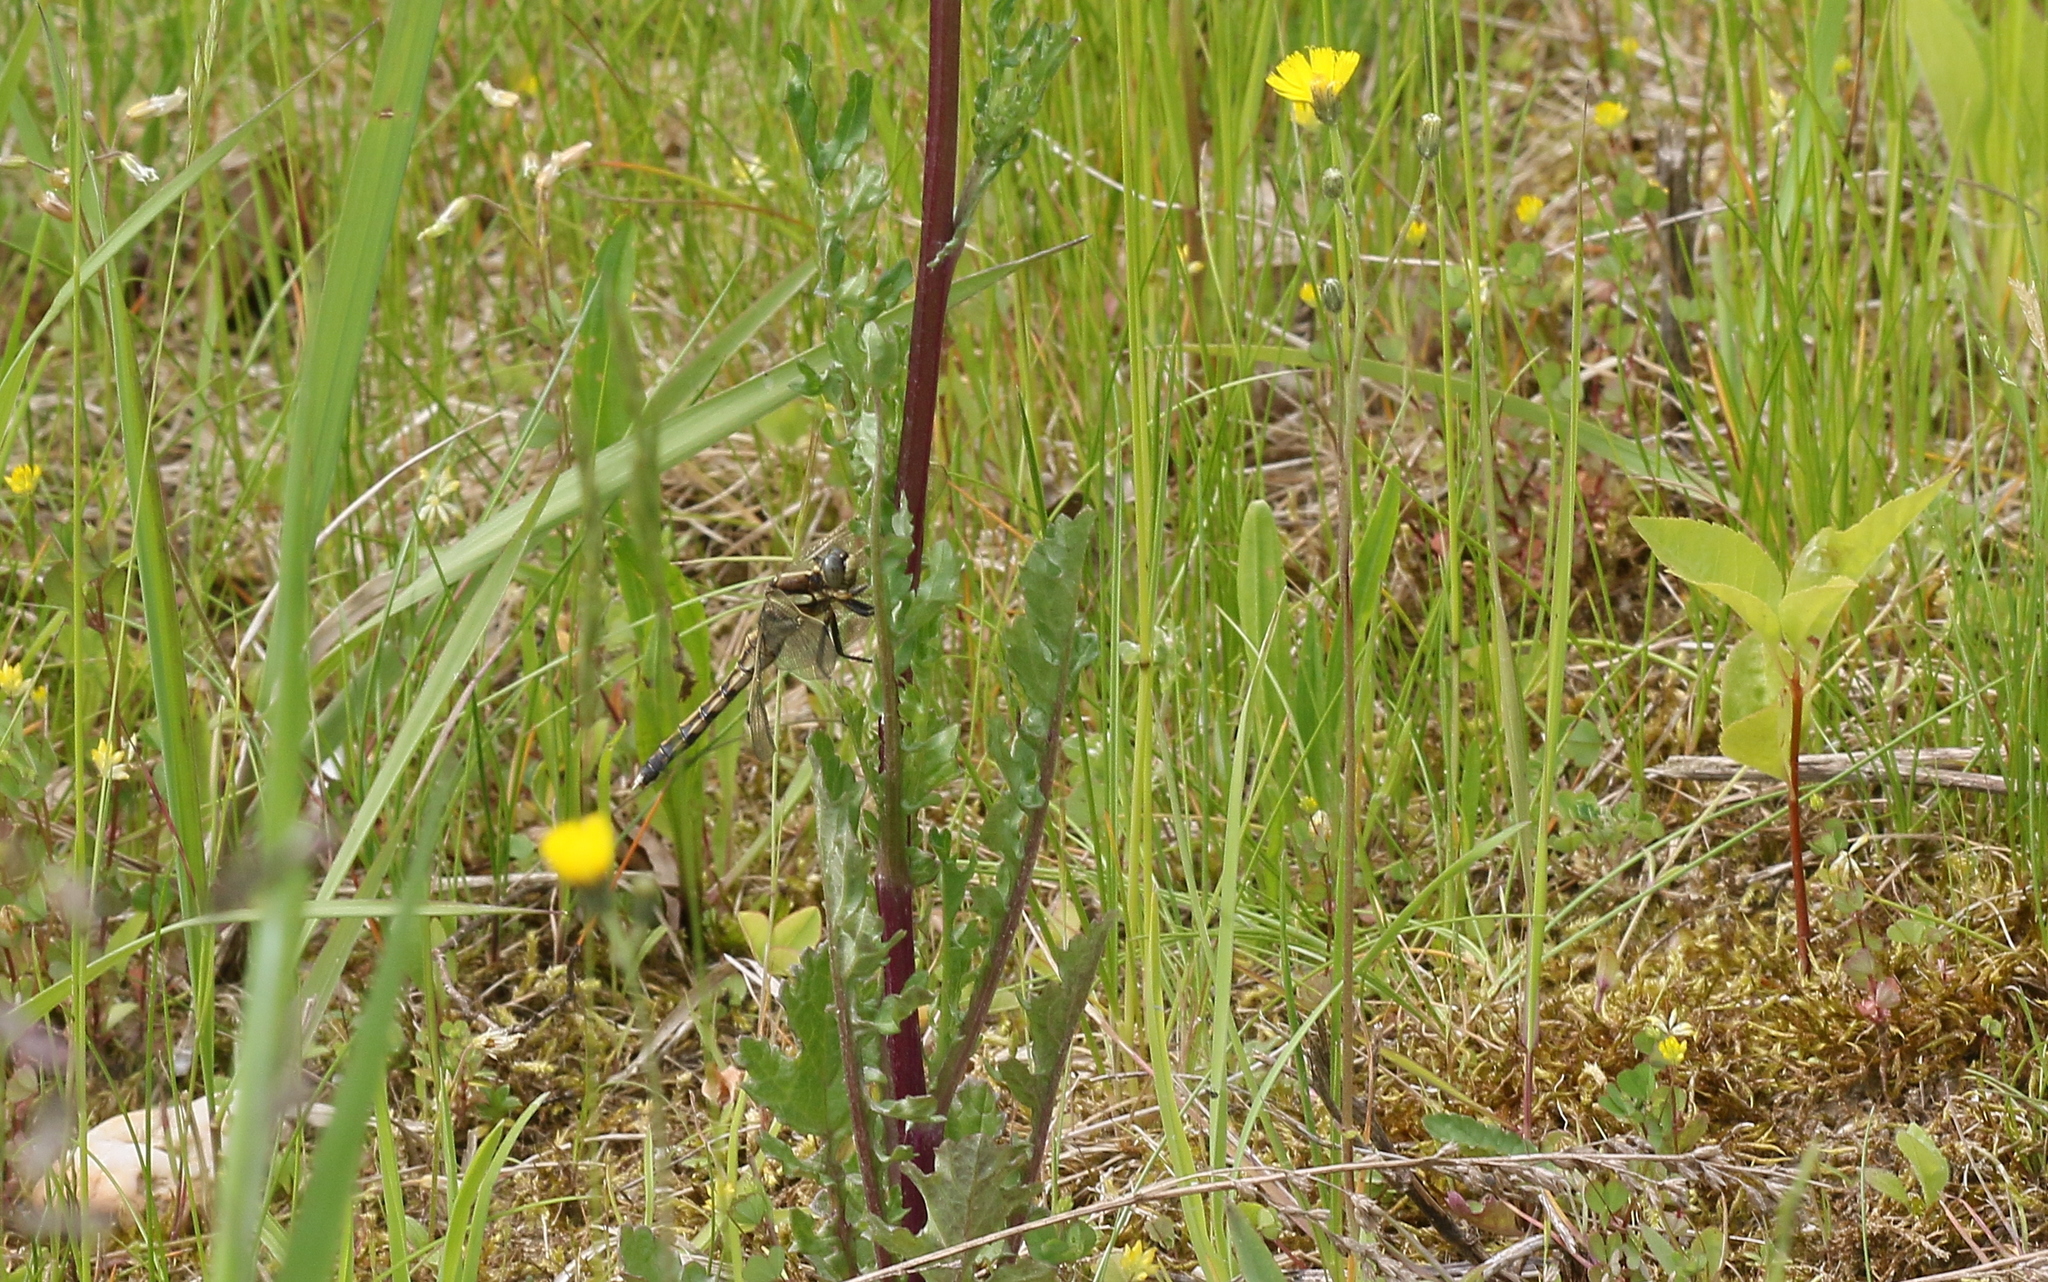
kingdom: Animalia
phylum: Arthropoda
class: Insecta
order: Odonata
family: Libellulidae
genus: Orthetrum
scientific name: Orthetrum albistylum
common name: White-tailed skimmer
